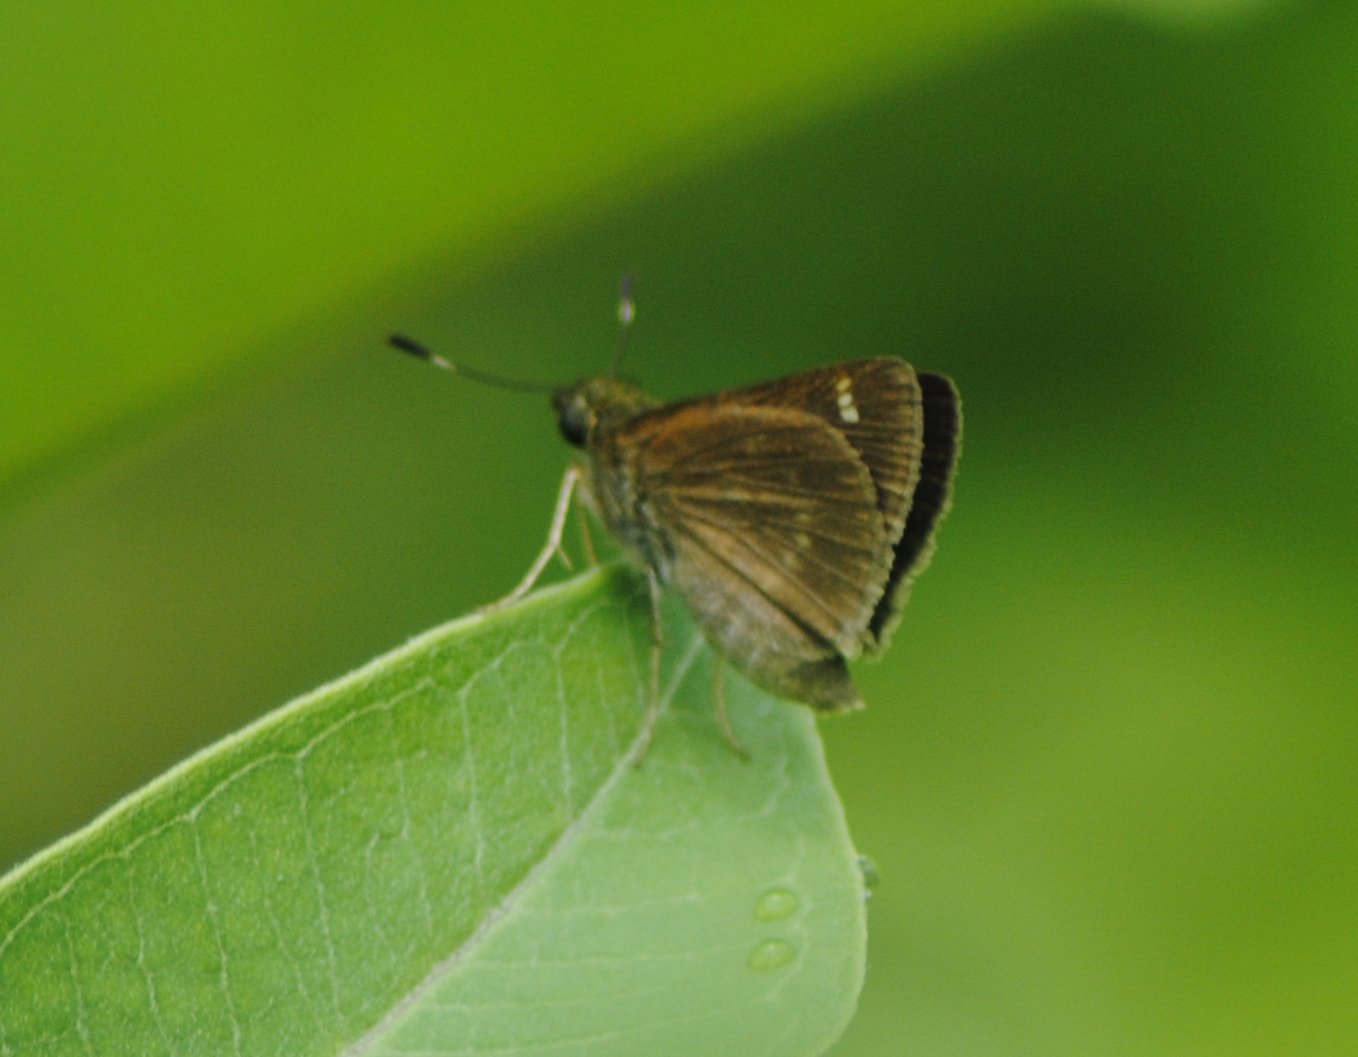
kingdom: Animalia
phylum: Arthropoda
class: Insecta
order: Lepidoptera
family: Hesperiidae
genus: Vernia
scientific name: Vernia verna
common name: Little glassywing
